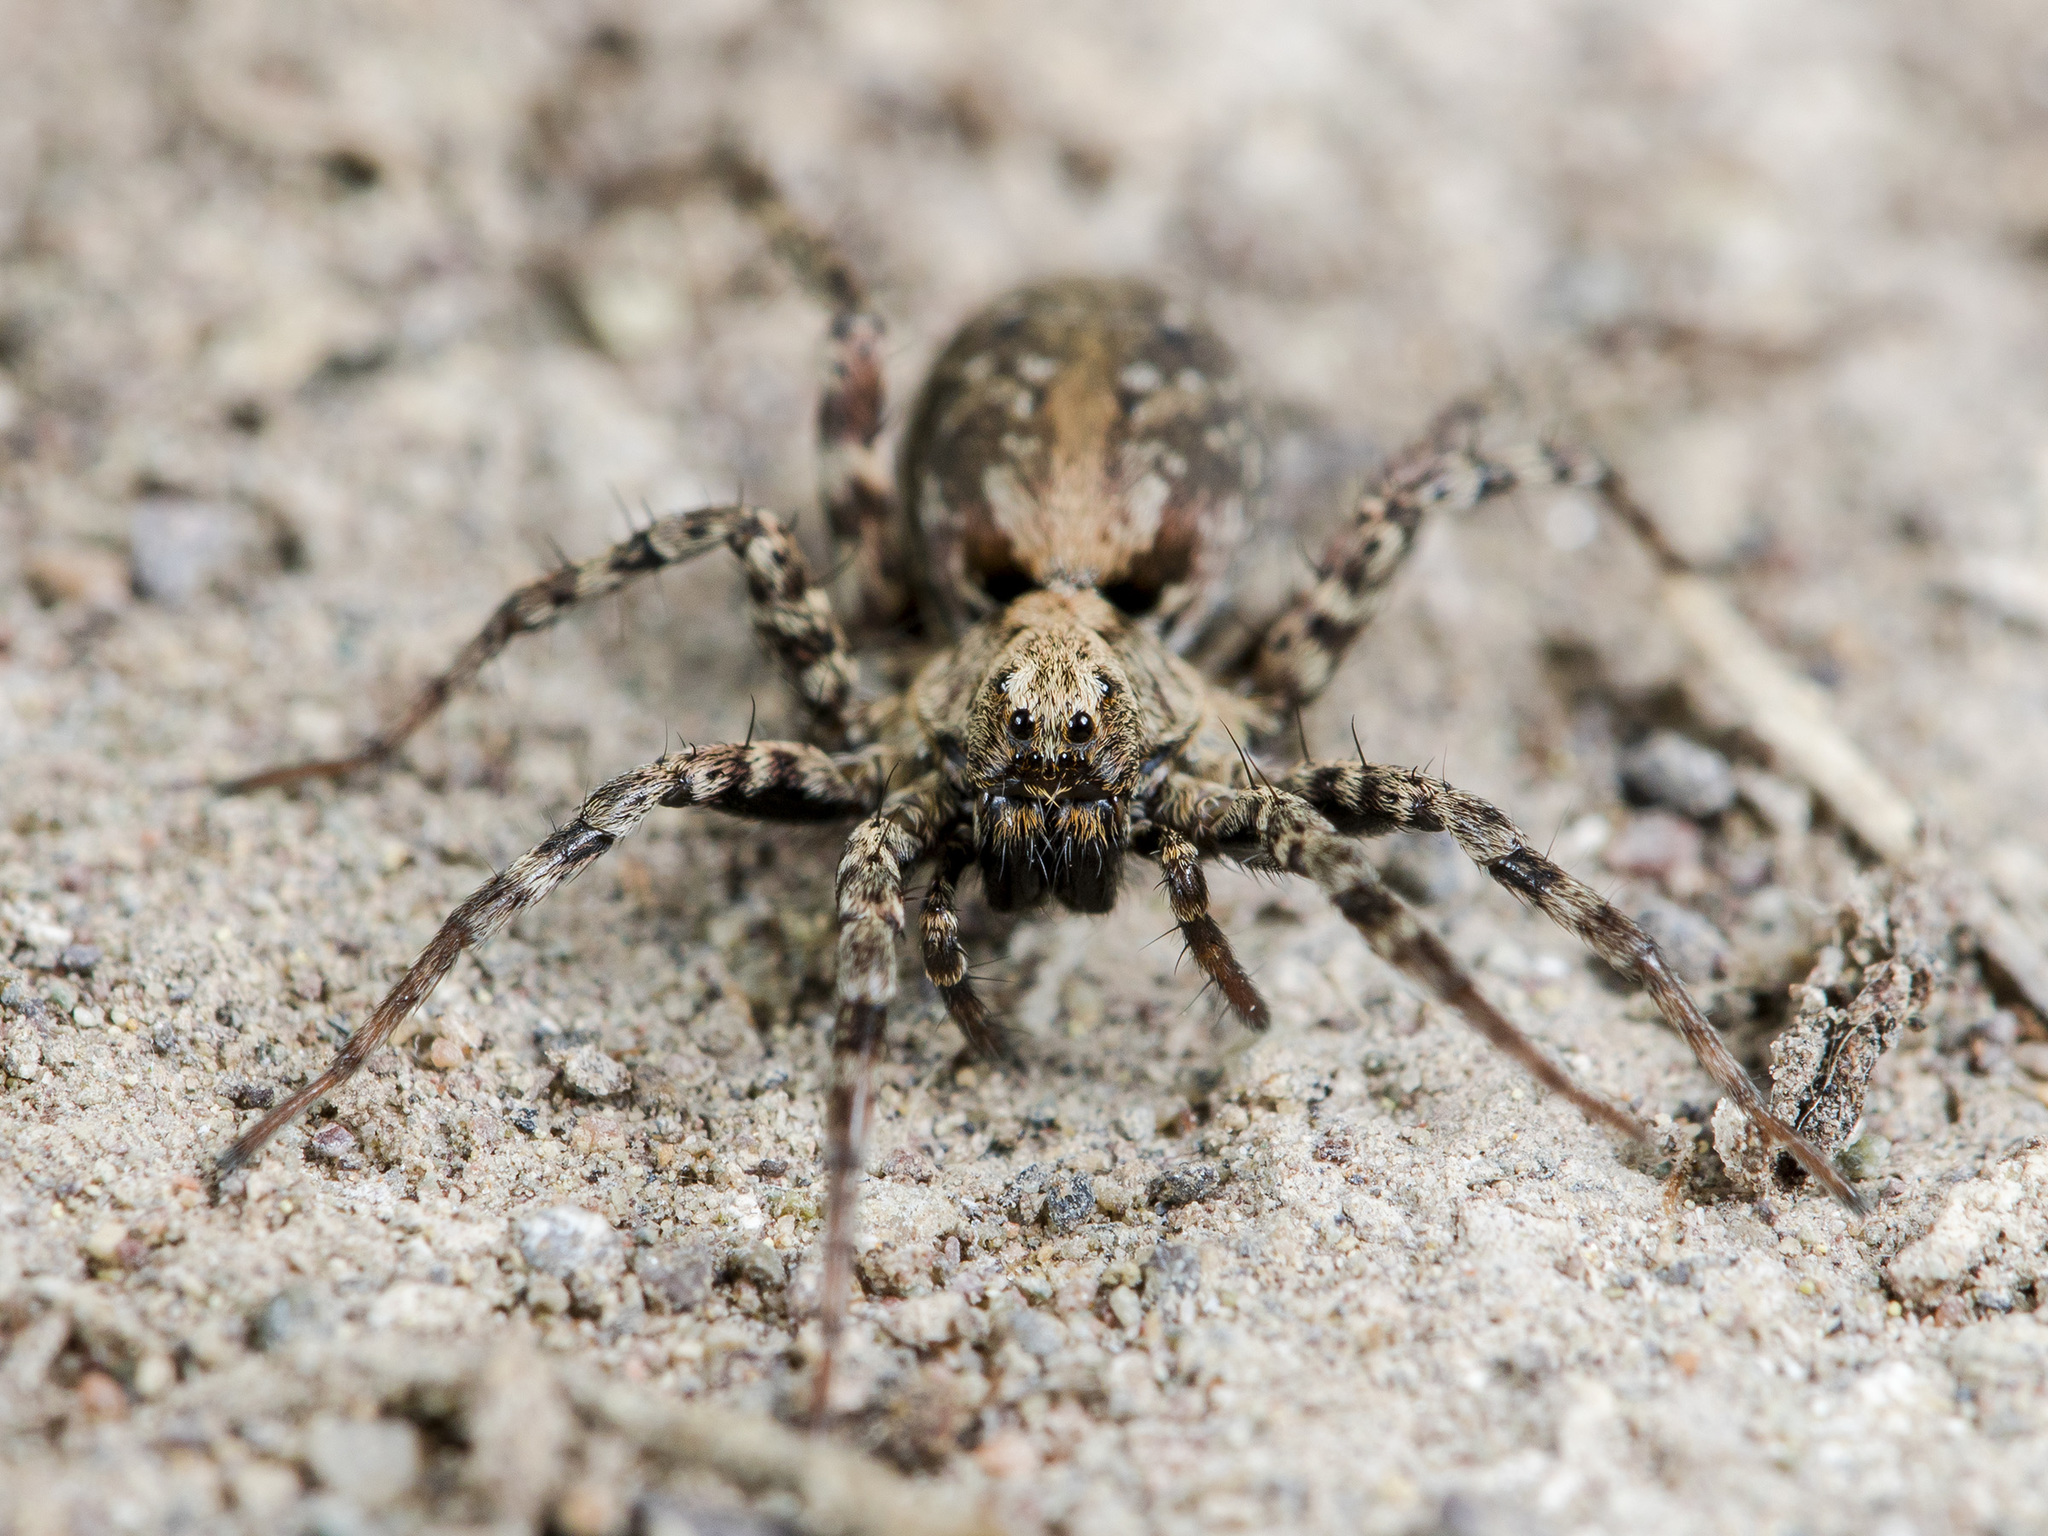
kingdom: Animalia
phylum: Arthropoda
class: Arachnida
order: Araneae
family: Lycosidae
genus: Xerolycosa
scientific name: Xerolycosa miniata
